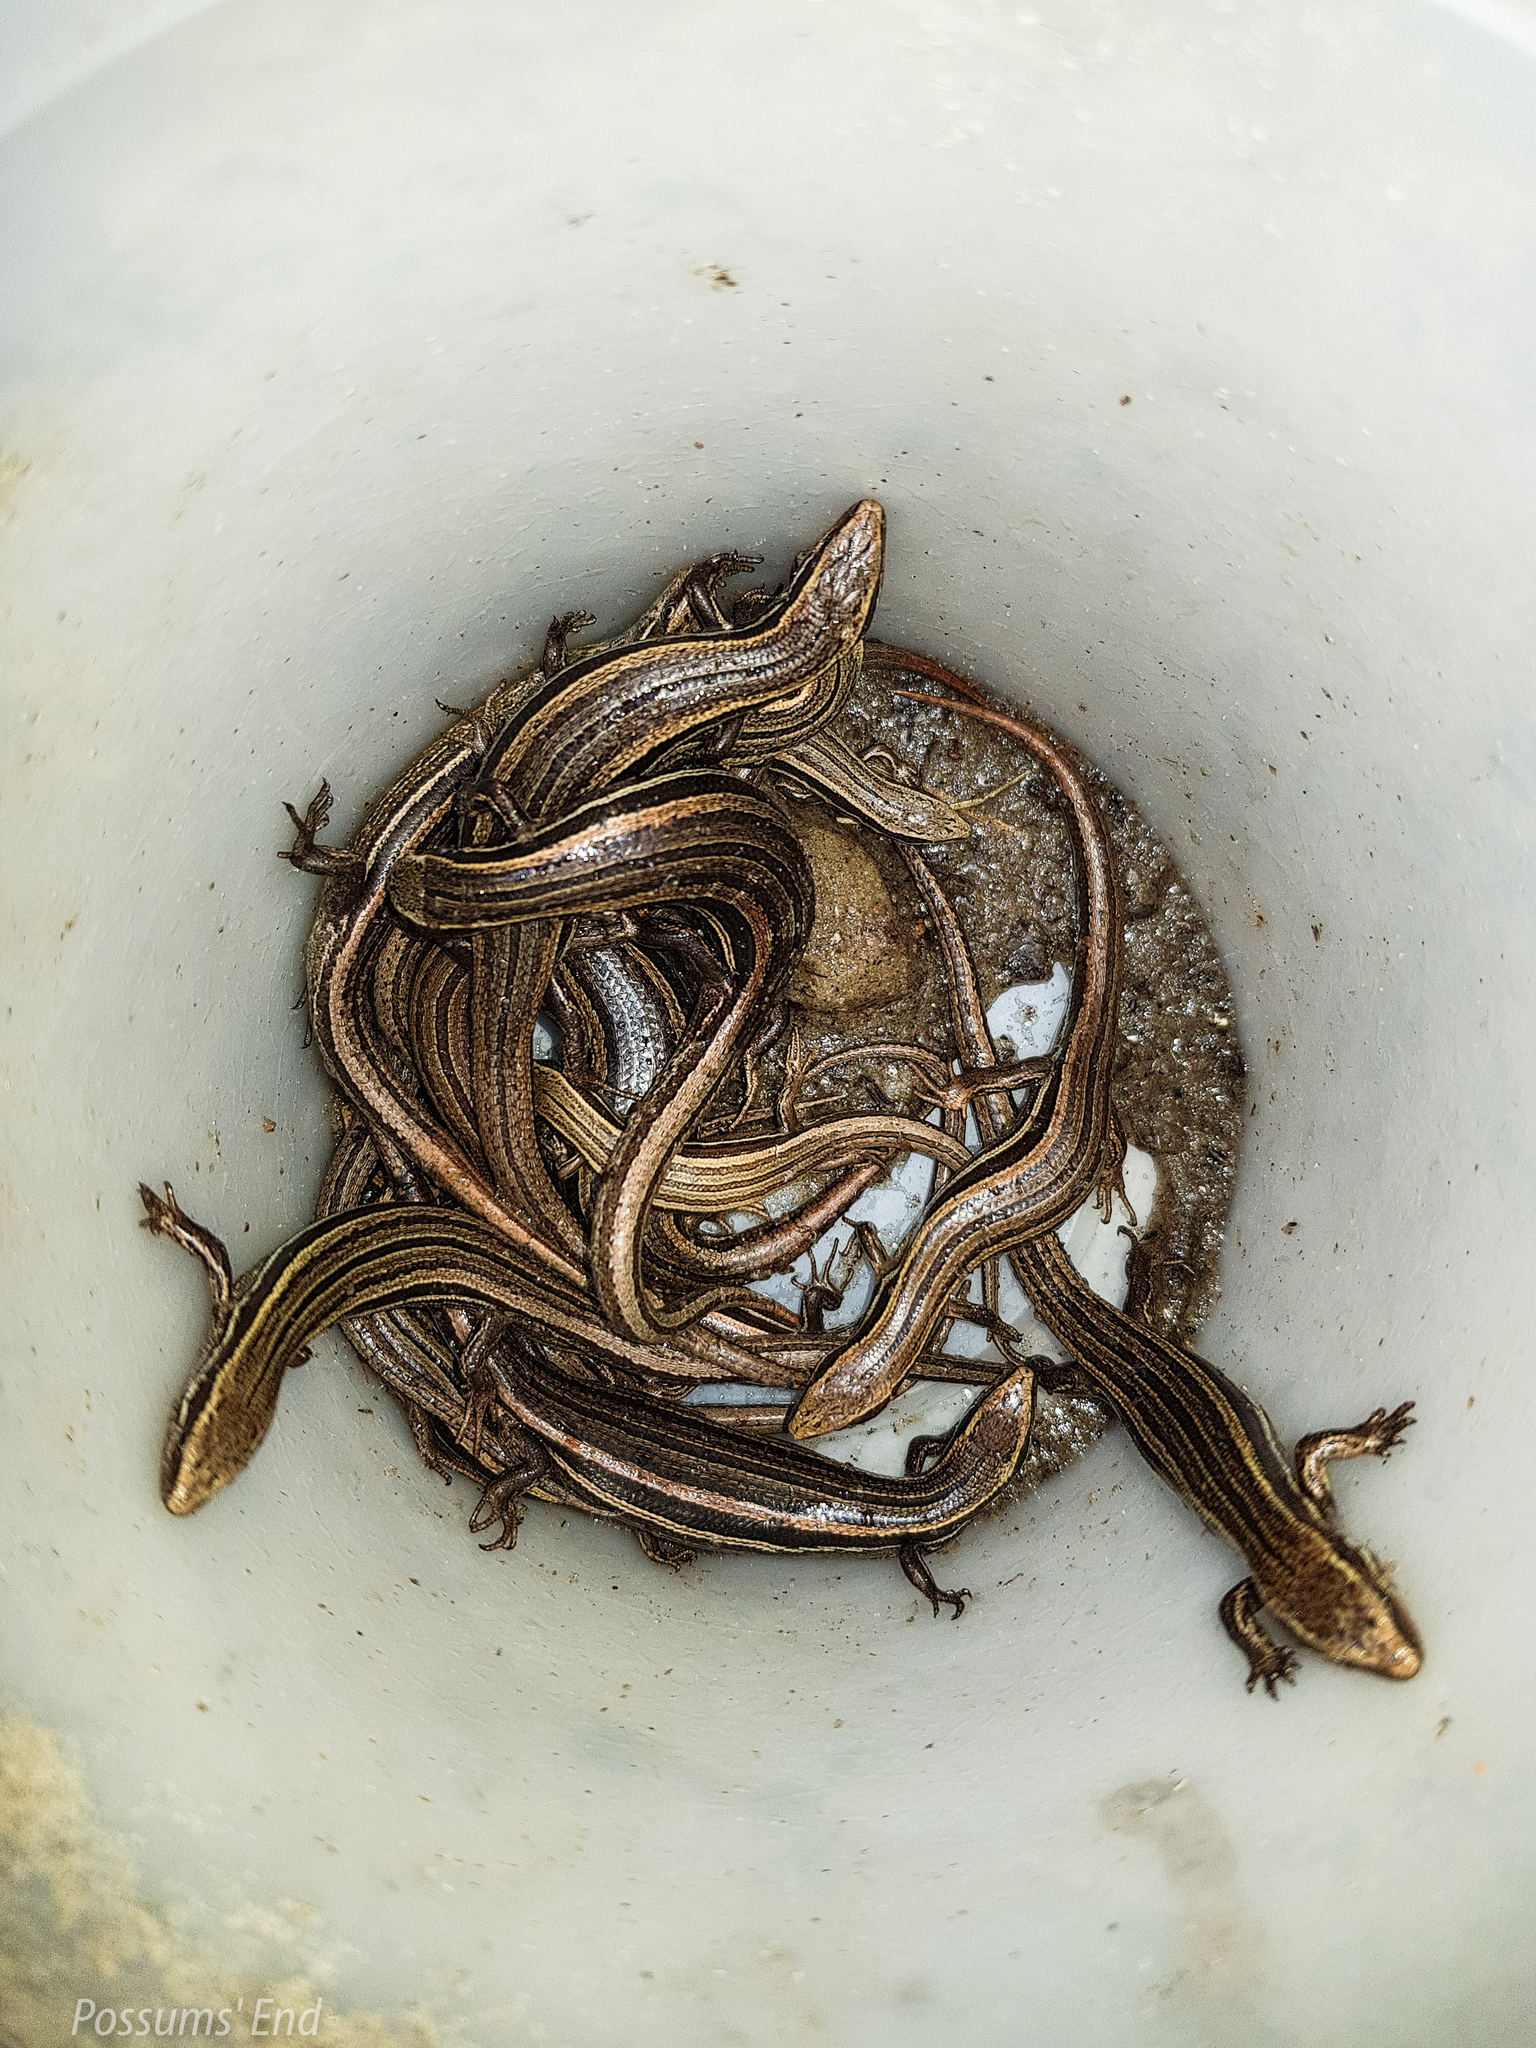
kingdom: Animalia
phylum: Chordata
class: Squamata
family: Scincidae
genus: Oligosoma
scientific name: Oligosoma polychroma
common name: Common new zealand skink
